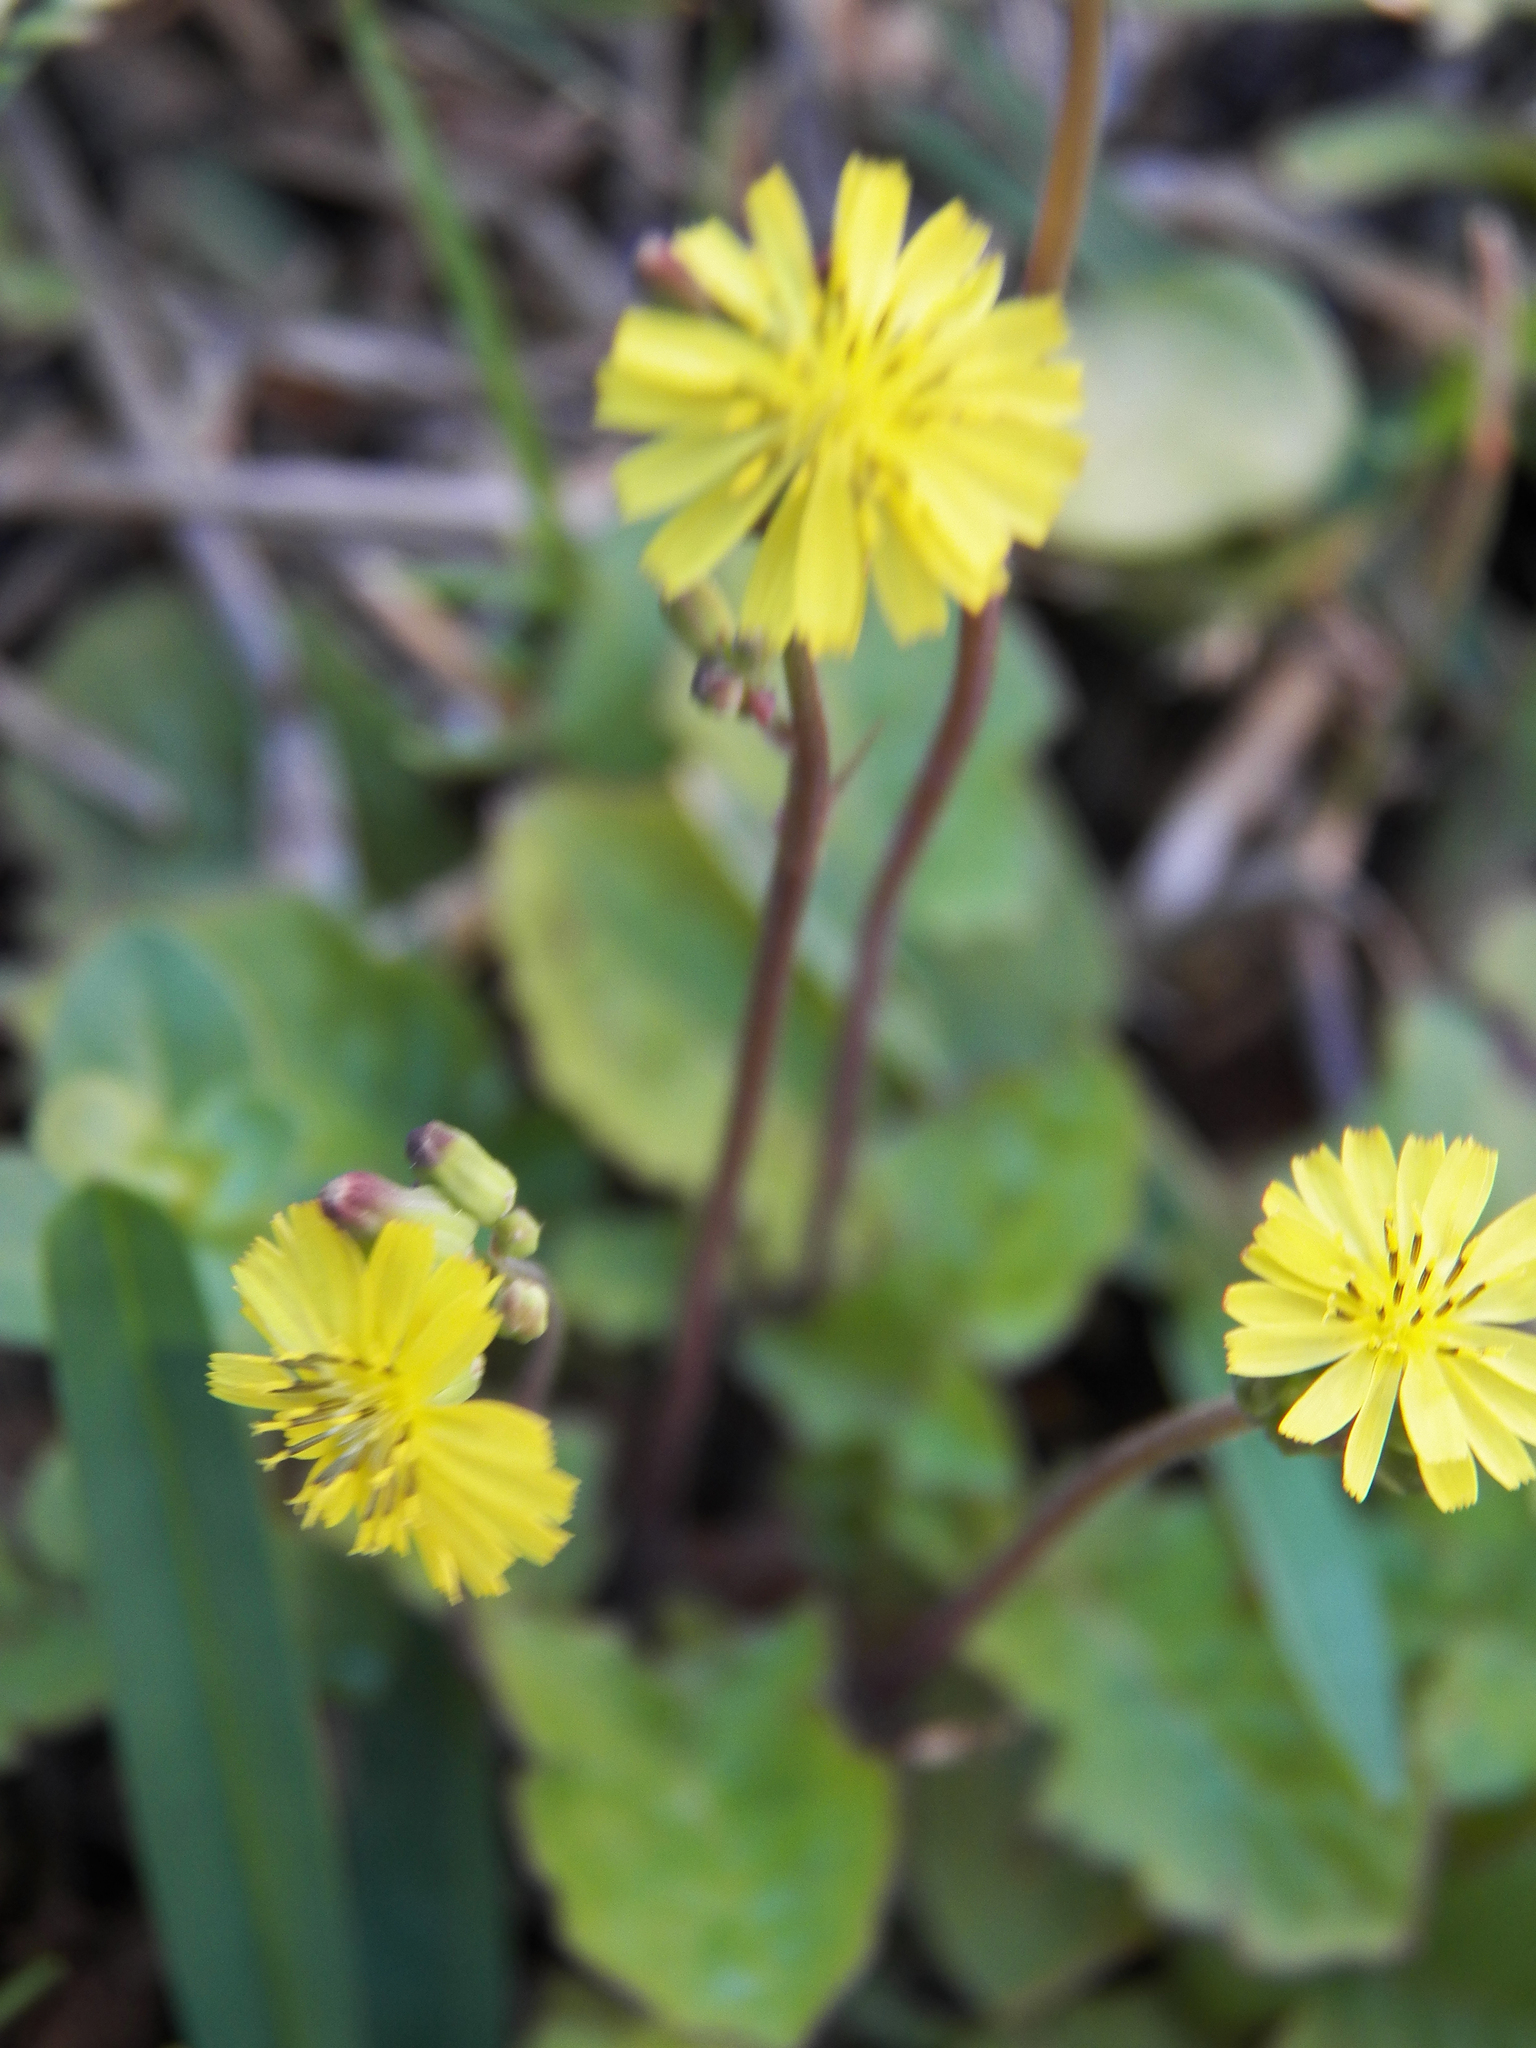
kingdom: Plantae
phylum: Tracheophyta
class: Magnoliopsida
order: Asterales
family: Asteraceae
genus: Youngia
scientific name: Youngia japonica
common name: Oriental false hawksbeard
